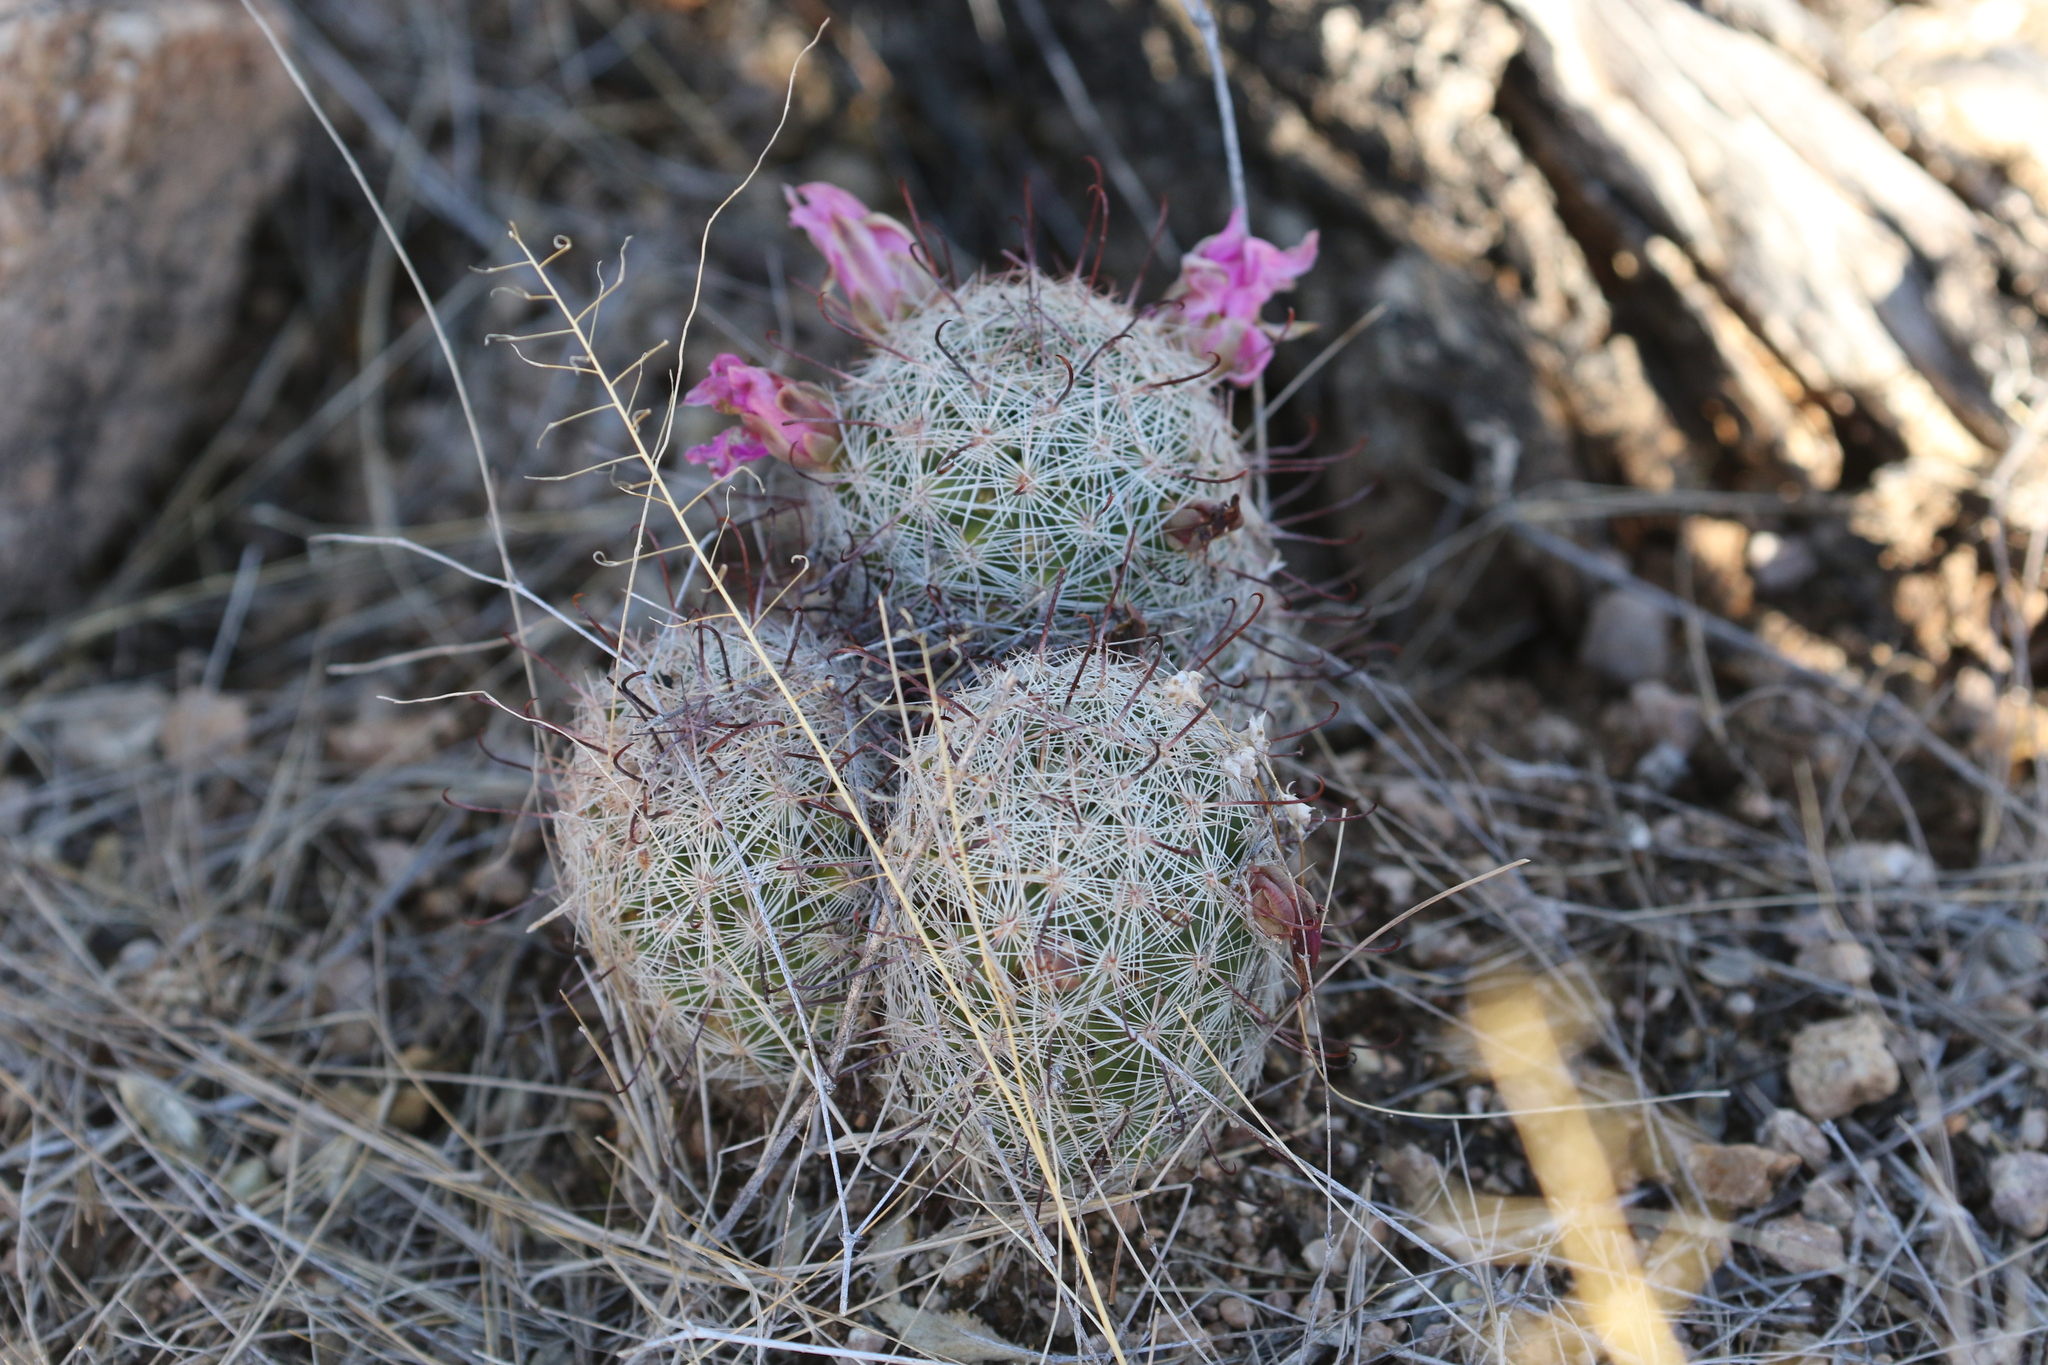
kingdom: Plantae
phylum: Tracheophyta
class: Magnoliopsida
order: Caryophyllales
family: Cactaceae
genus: Cochemiea
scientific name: Cochemiea grahamii
